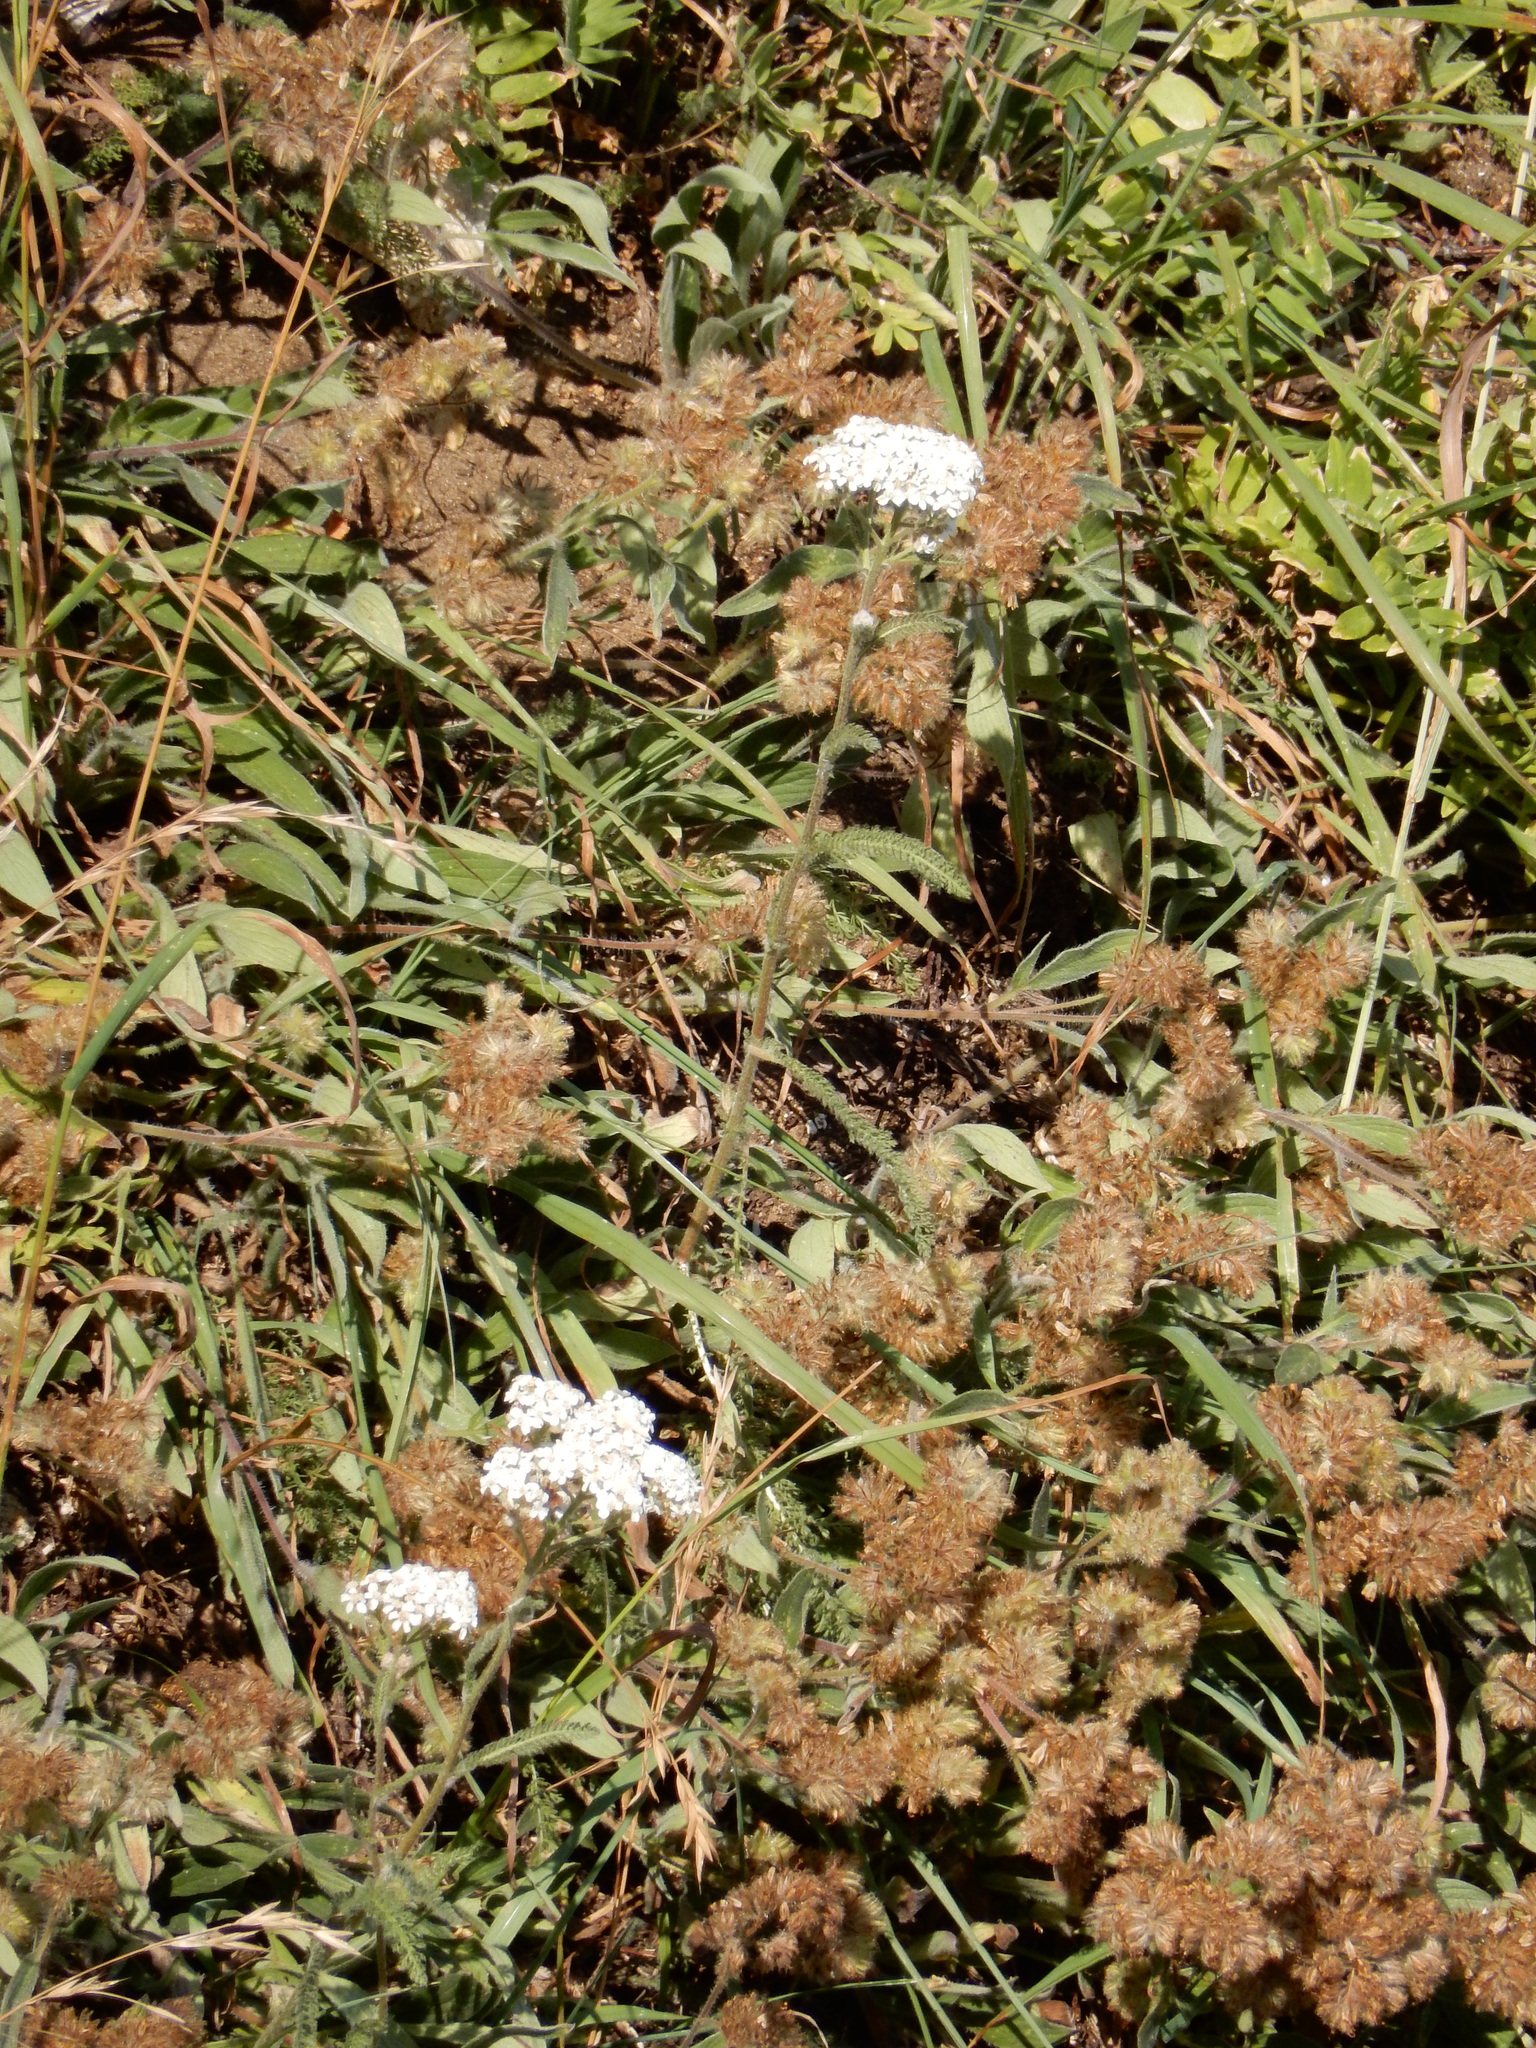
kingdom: Plantae
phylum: Tracheophyta
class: Magnoliopsida
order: Asterales
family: Asteraceae
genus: Achillea
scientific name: Achillea millefolium
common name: Yarrow
